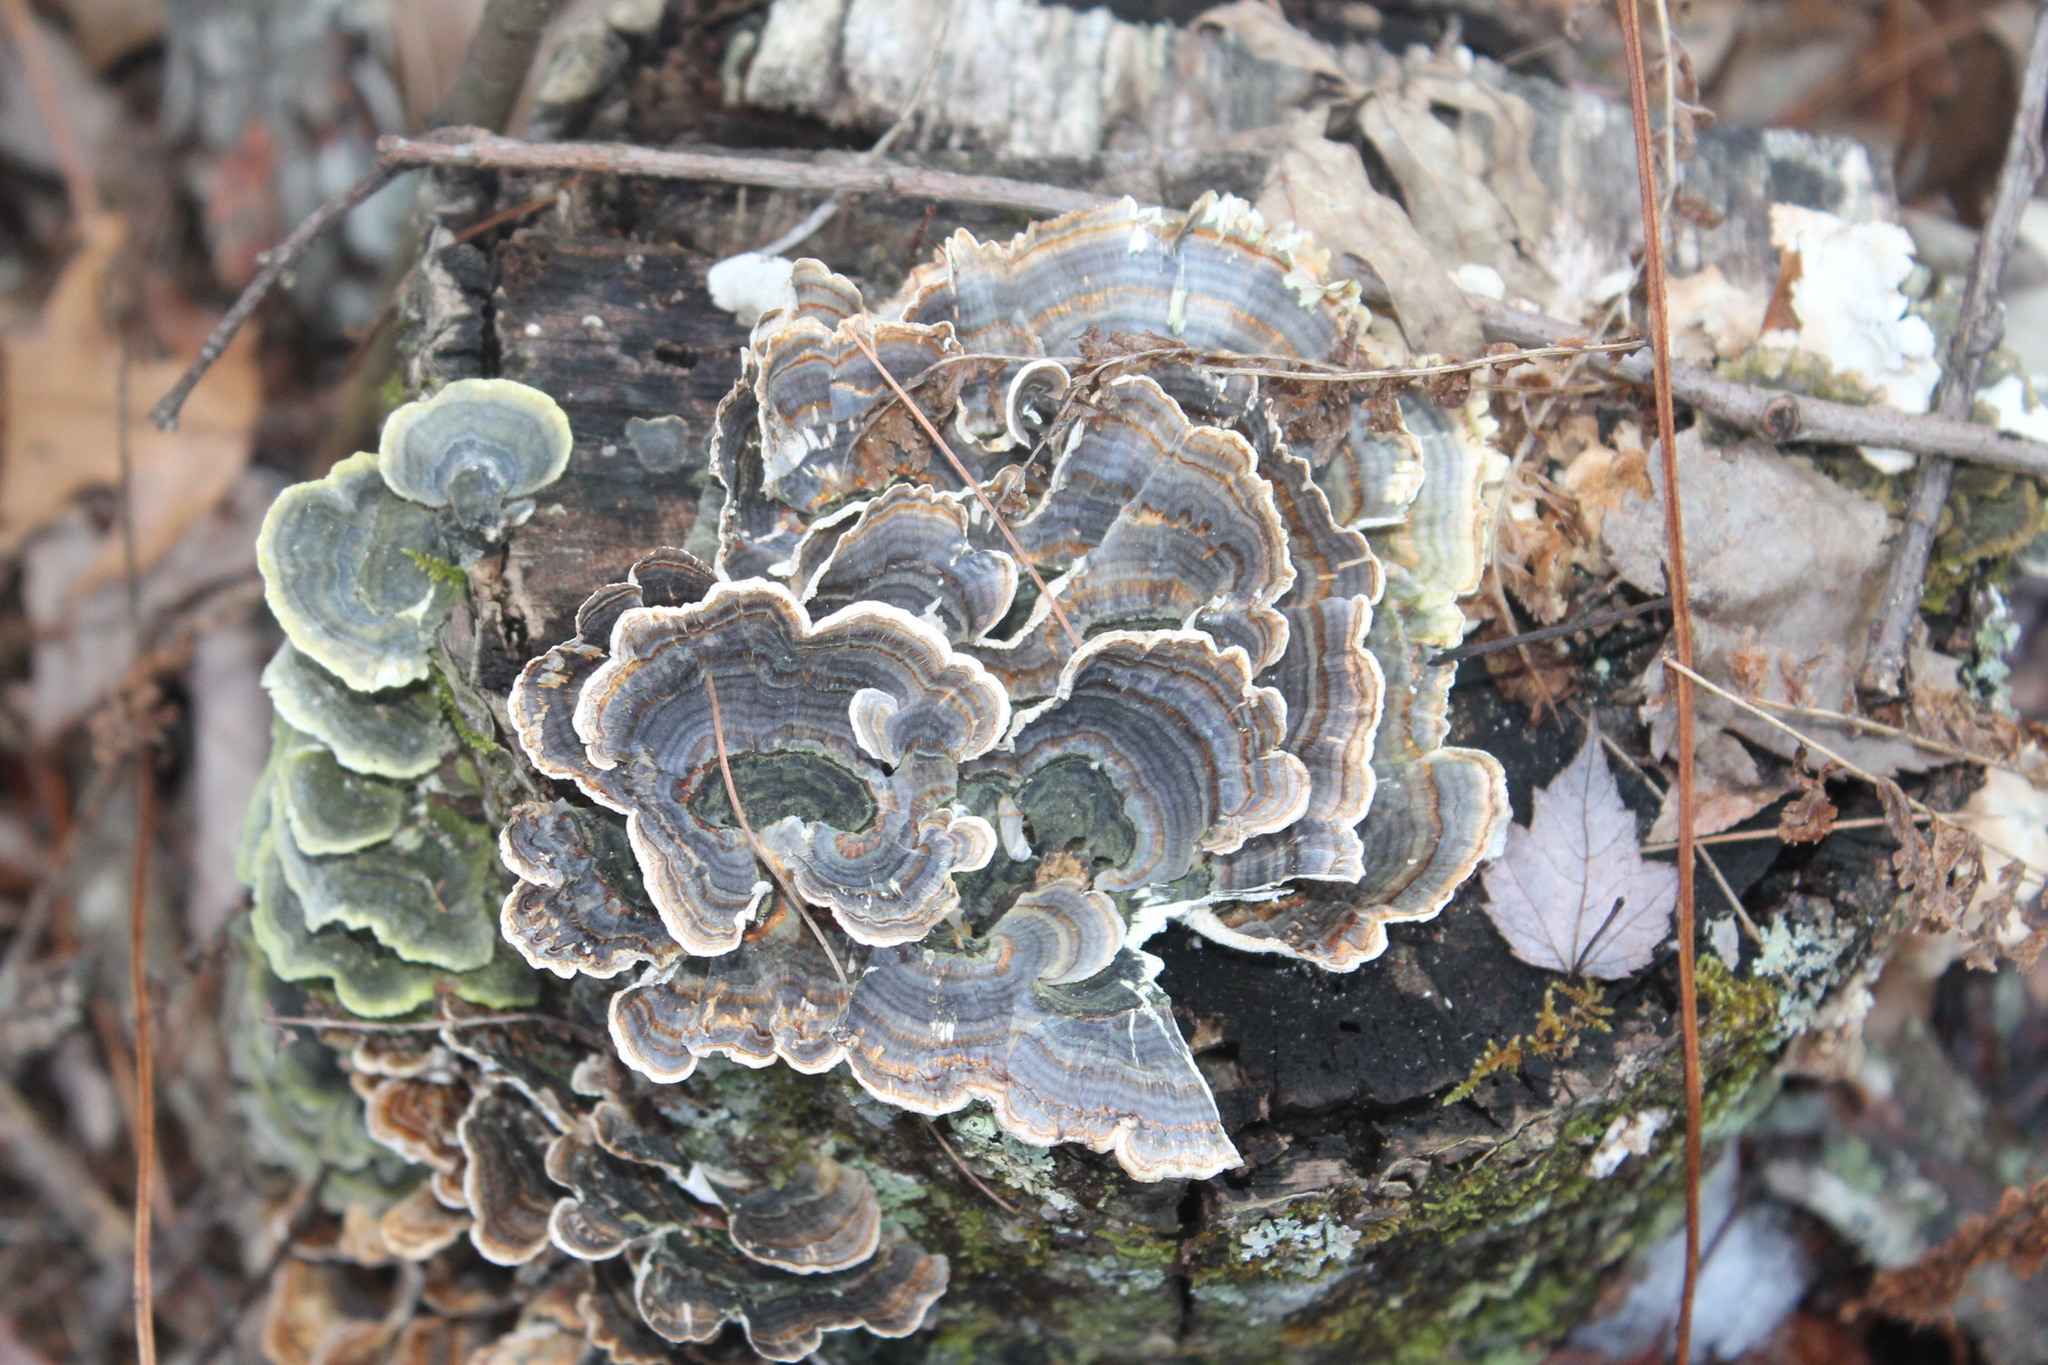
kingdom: Fungi
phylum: Basidiomycota
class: Agaricomycetes
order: Polyporales
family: Polyporaceae
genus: Trametes
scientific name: Trametes versicolor
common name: Turkeytail
